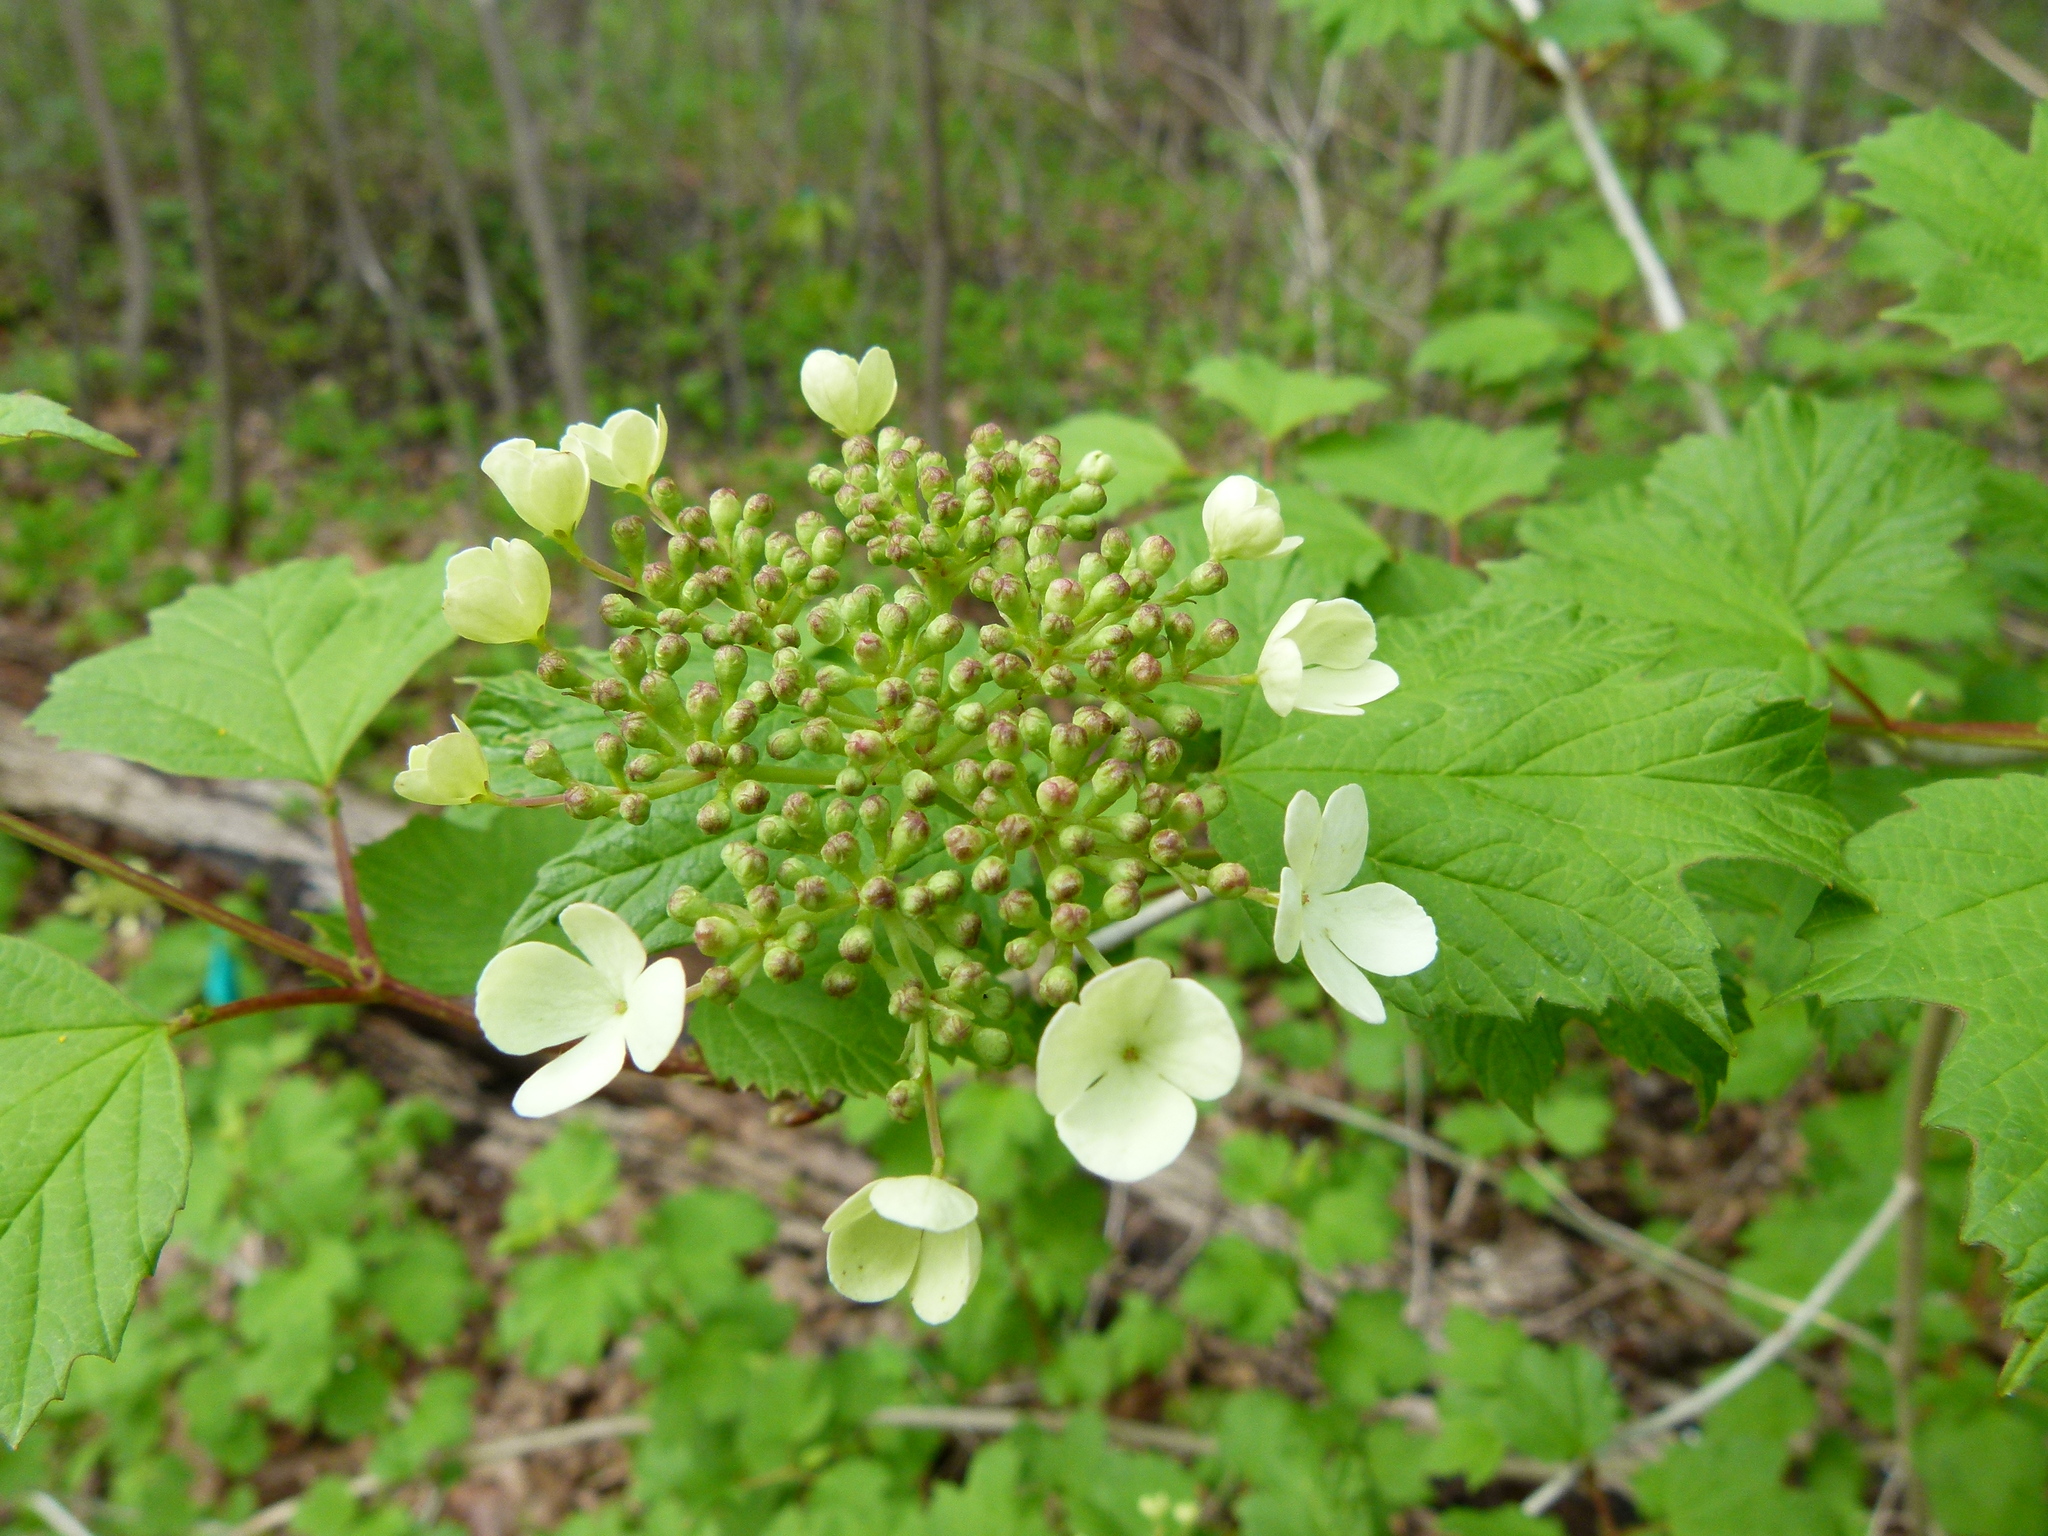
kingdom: Plantae
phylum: Tracheophyta
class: Magnoliopsida
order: Dipsacales
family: Viburnaceae
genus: Viburnum
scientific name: Viburnum opulus
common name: Guelder-rose
